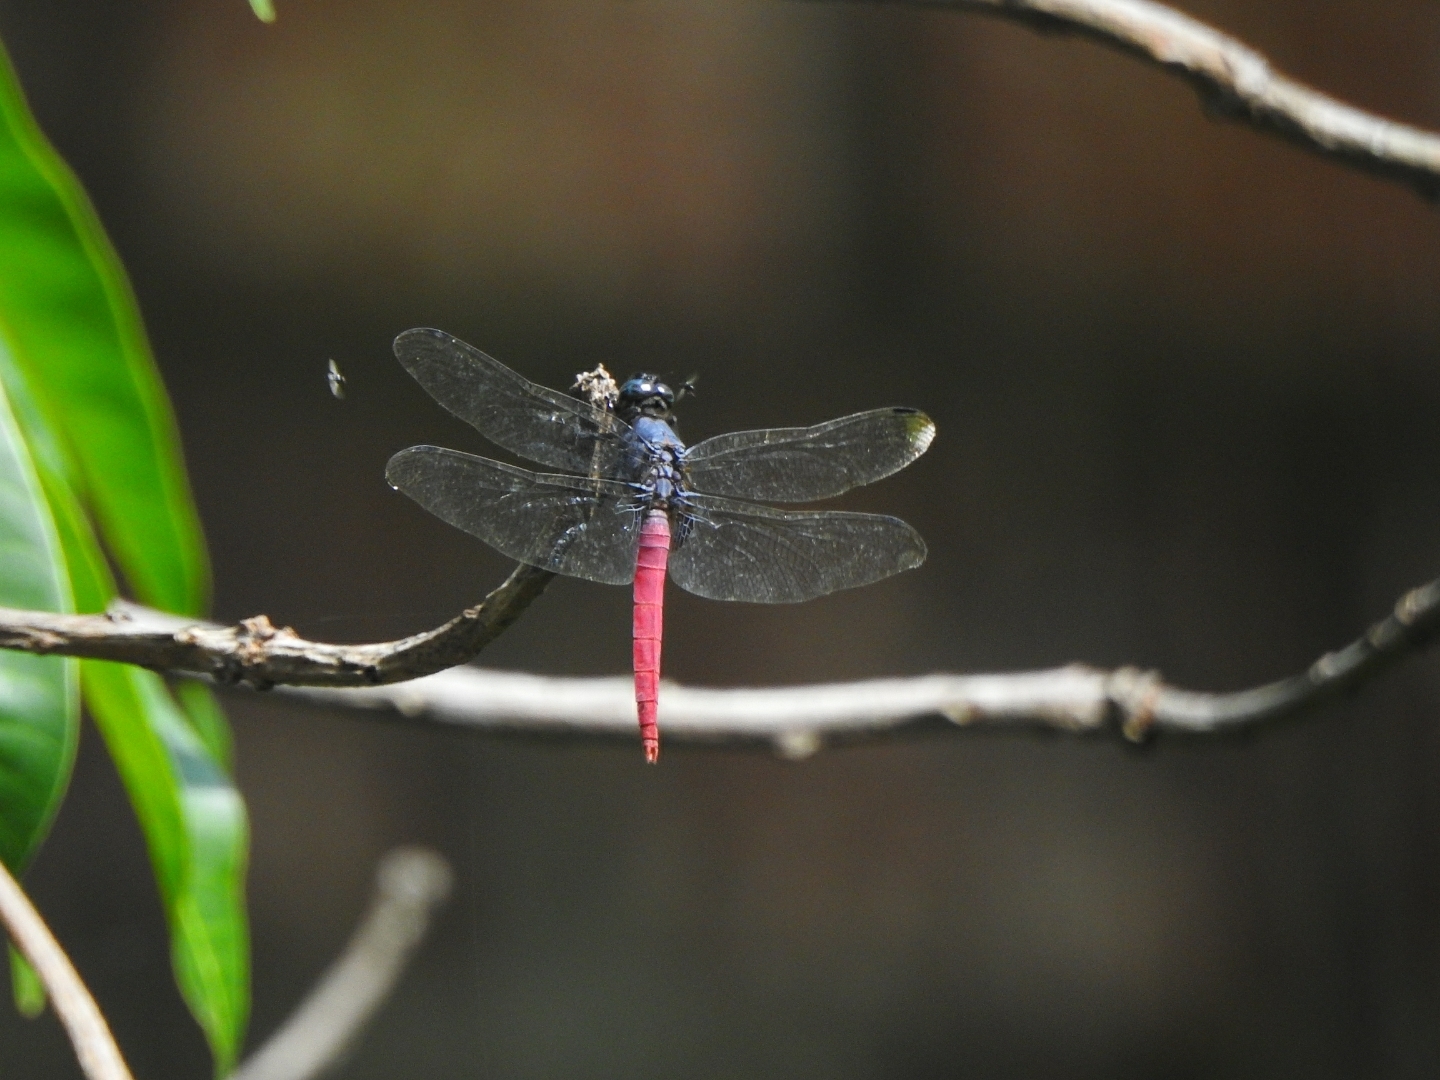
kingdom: Animalia
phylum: Arthropoda
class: Insecta
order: Odonata
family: Libellulidae
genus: Orthetrum
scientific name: Orthetrum pruinosum
